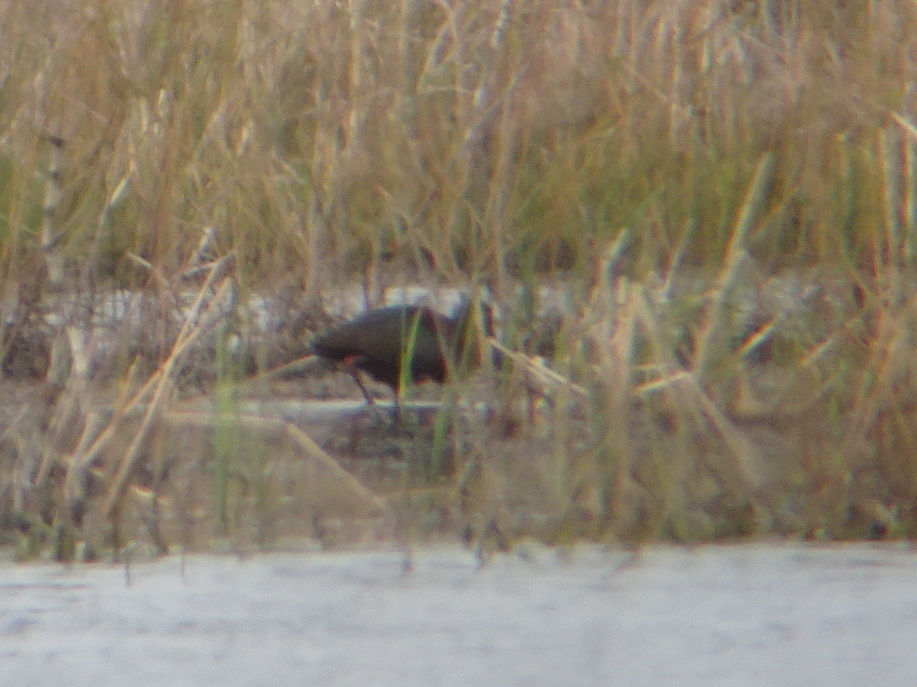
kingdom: Animalia
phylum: Chordata
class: Aves
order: Pelecaniformes
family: Threskiornithidae
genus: Plegadis
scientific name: Plegadis chihi
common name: White-faced ibis
